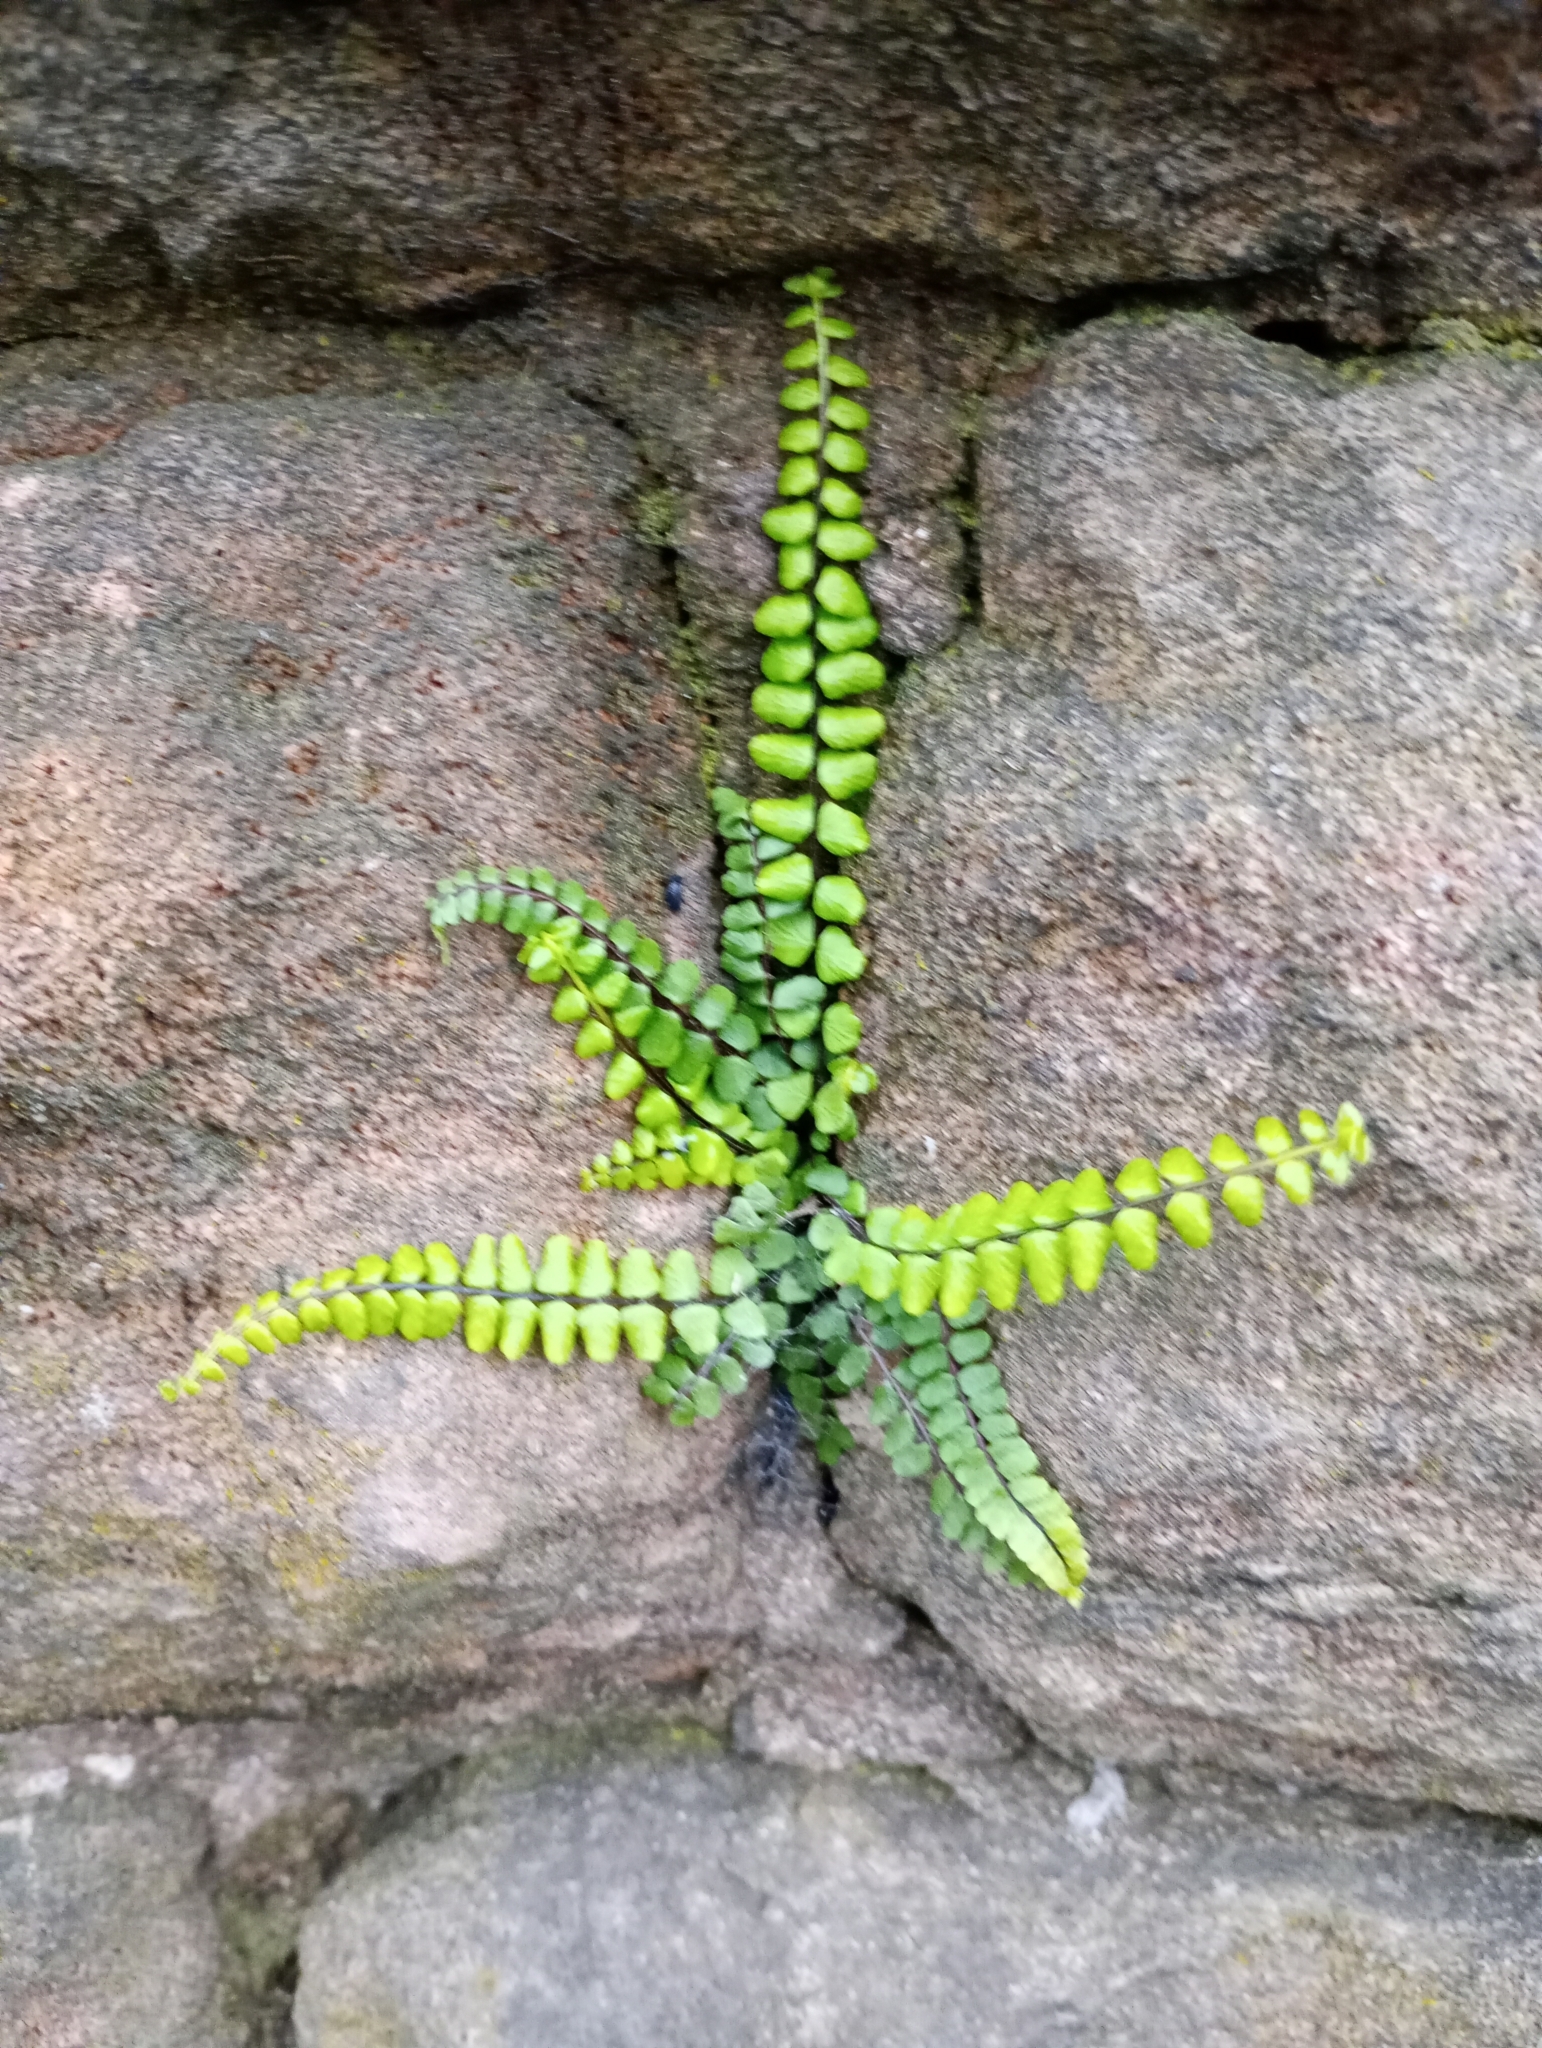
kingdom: Plantae
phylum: Tracheophyta
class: Polypodiopsida
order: Polypodiales
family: Aspleniaceae
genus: Asplenium
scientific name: Asplenium trichomanes
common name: Maidenhair spleenwort
